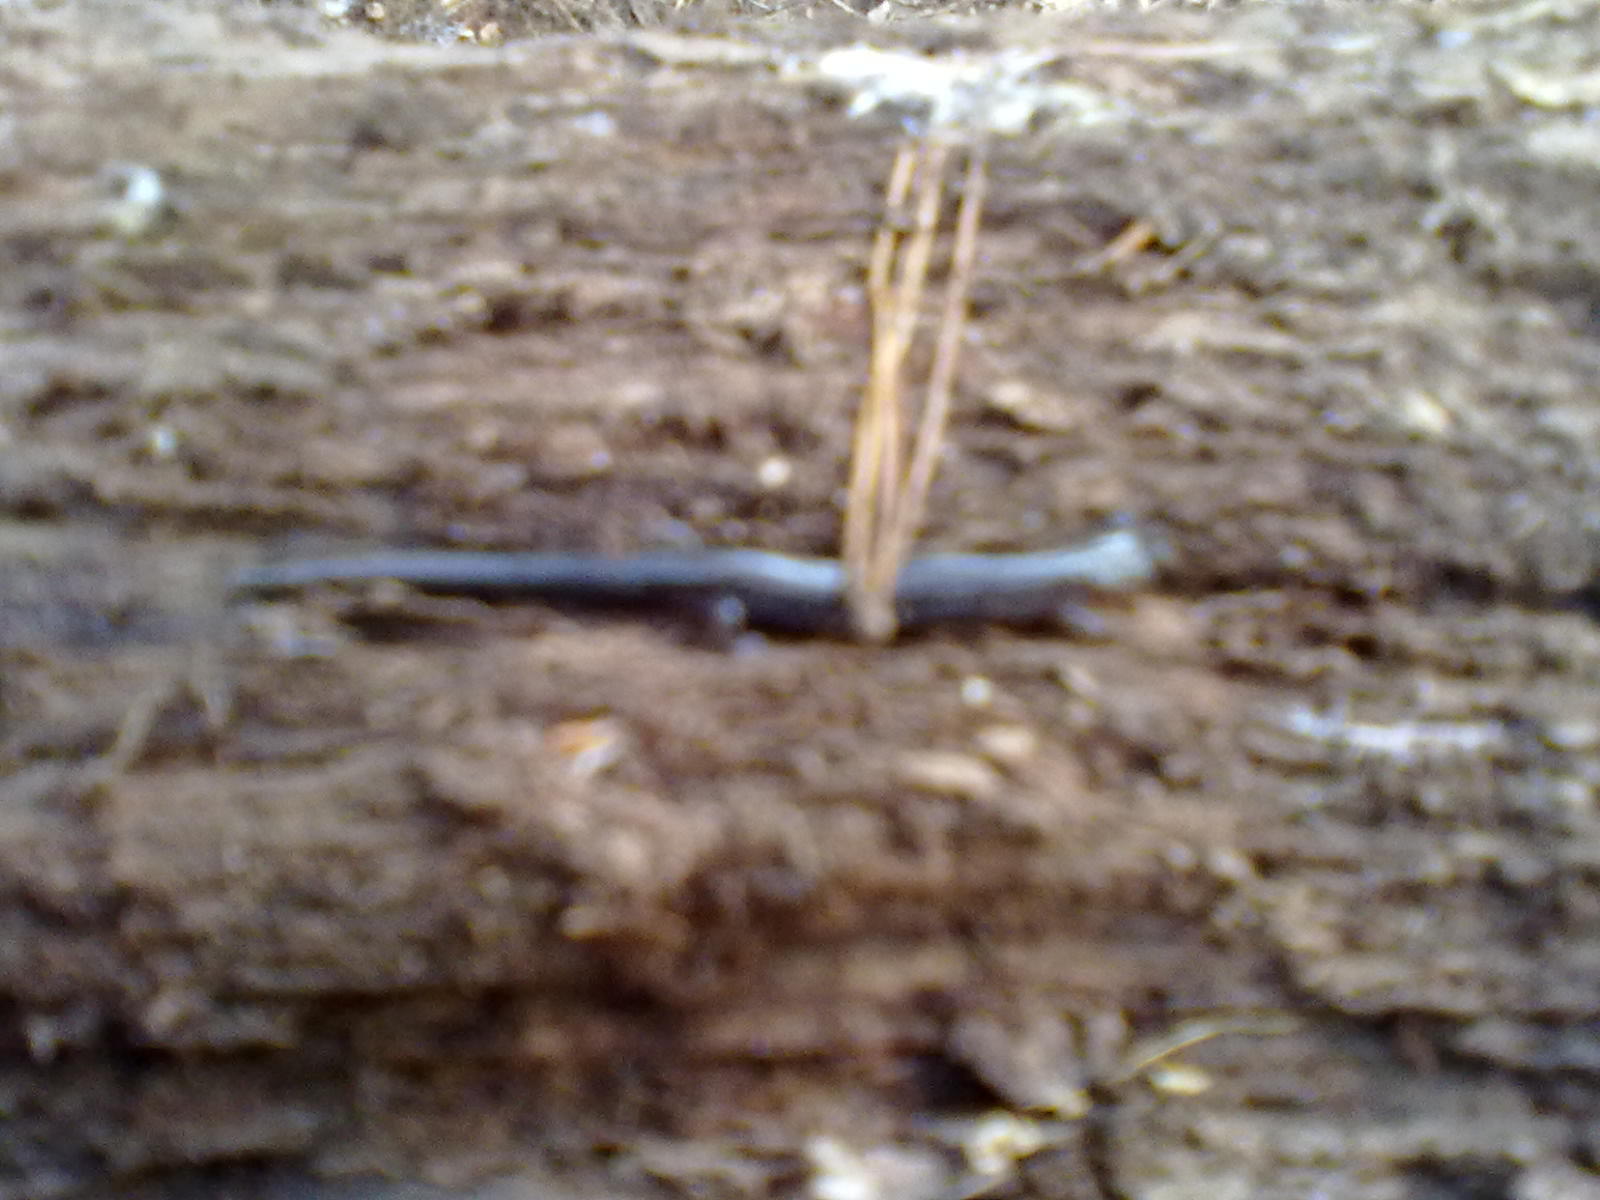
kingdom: Animalia
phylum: Chordata
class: Amphibia
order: Caudata
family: Plethodontidae
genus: Plethodon
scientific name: Plethodon cinereus
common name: Redback salamander
